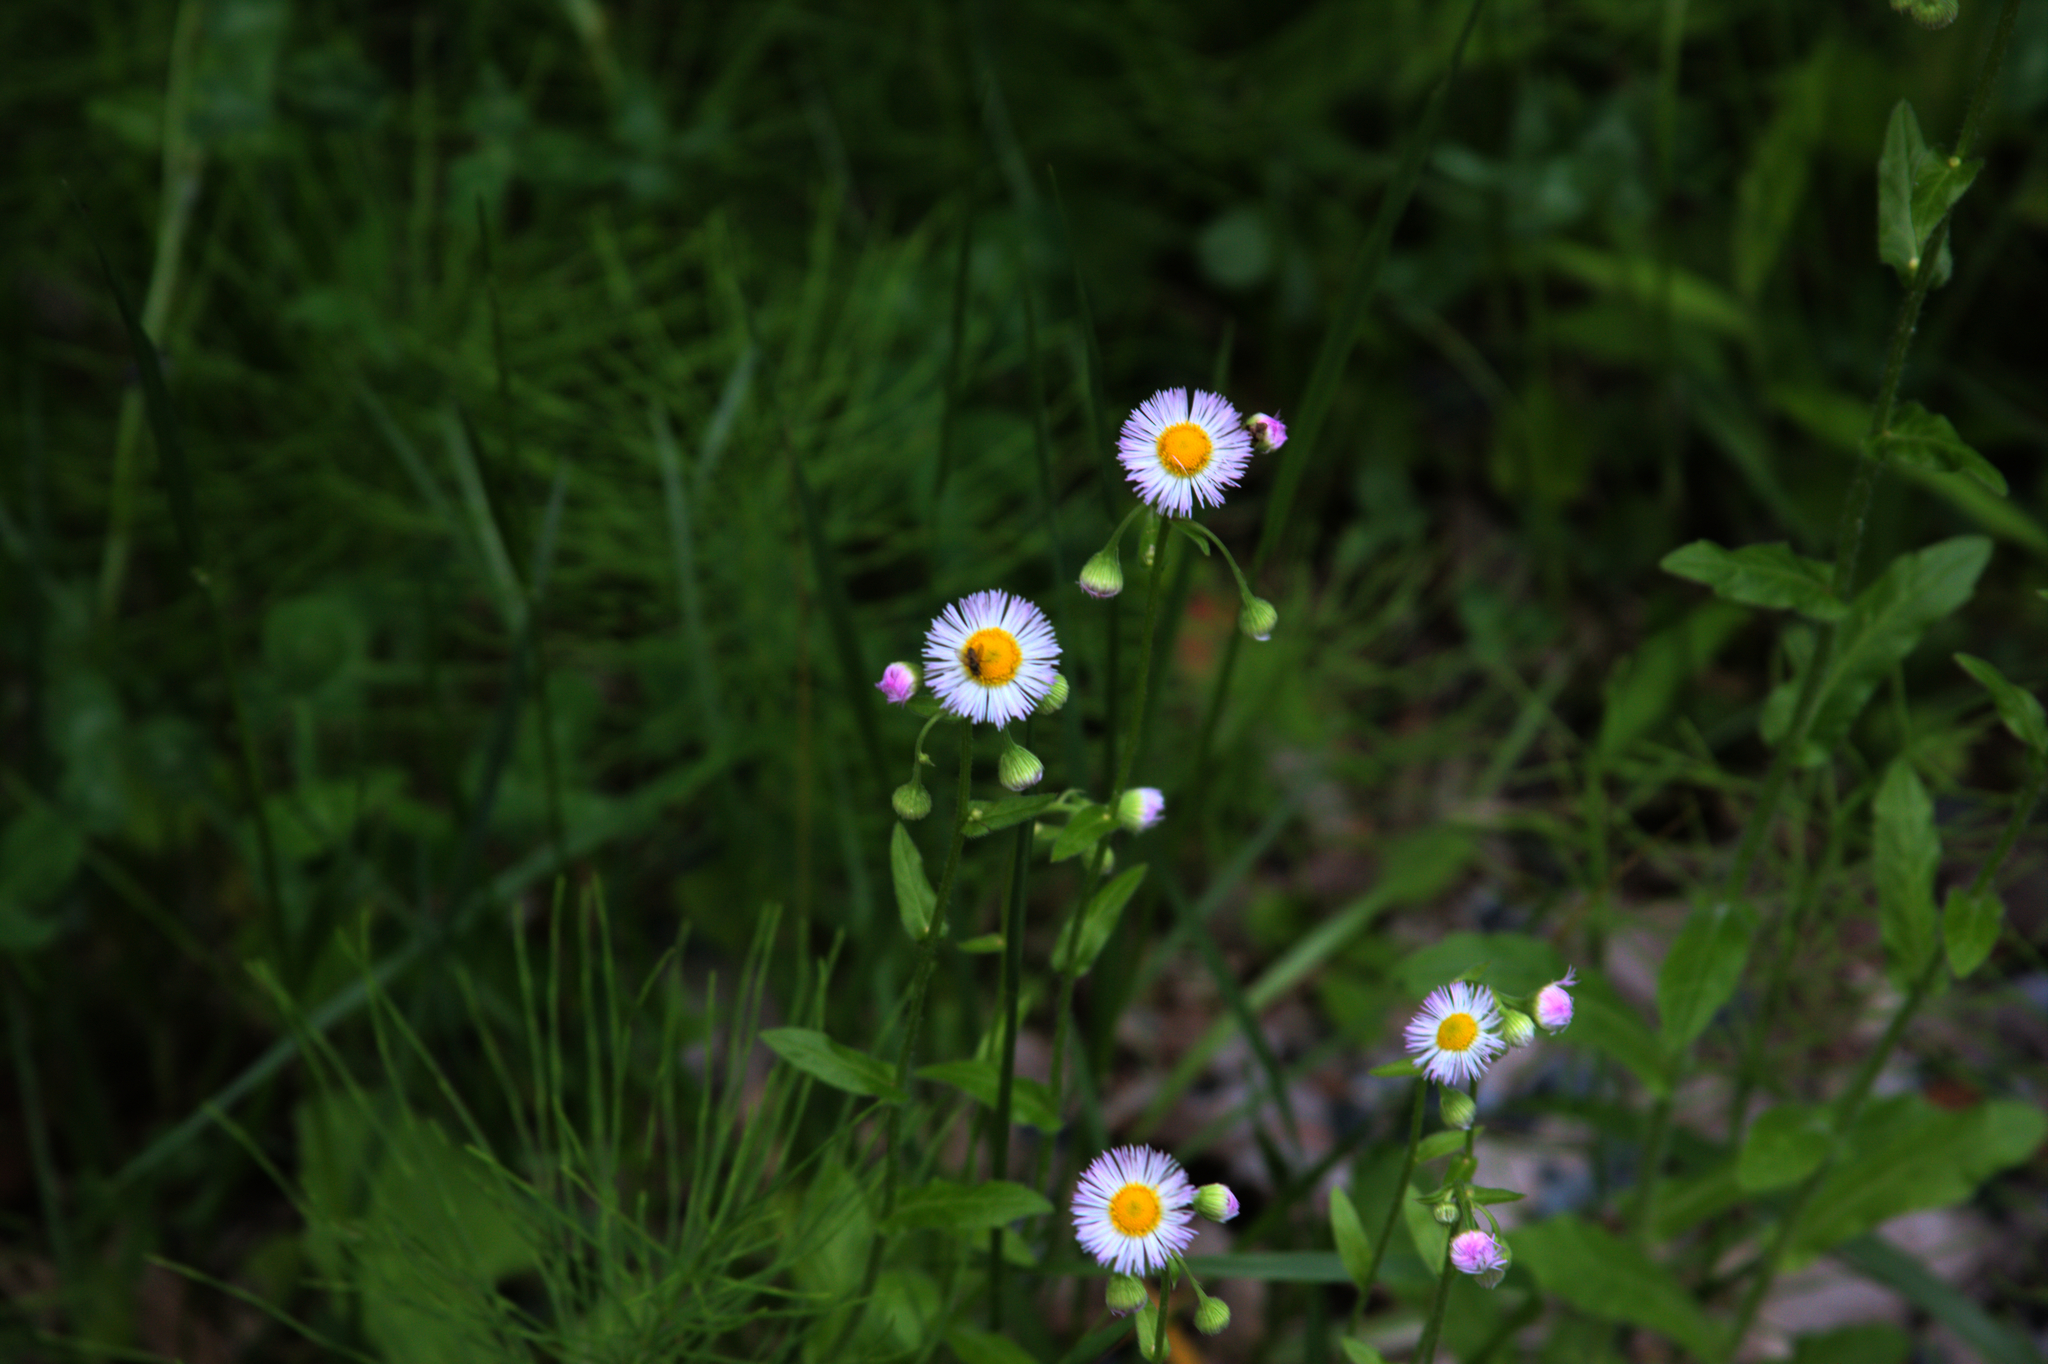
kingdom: Plantae
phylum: Tracheophyta
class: Magnoliopsida
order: Asterales
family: Asteraceae
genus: Erigeron
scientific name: Erigeron philadelphicus
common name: Robin's-plantain
